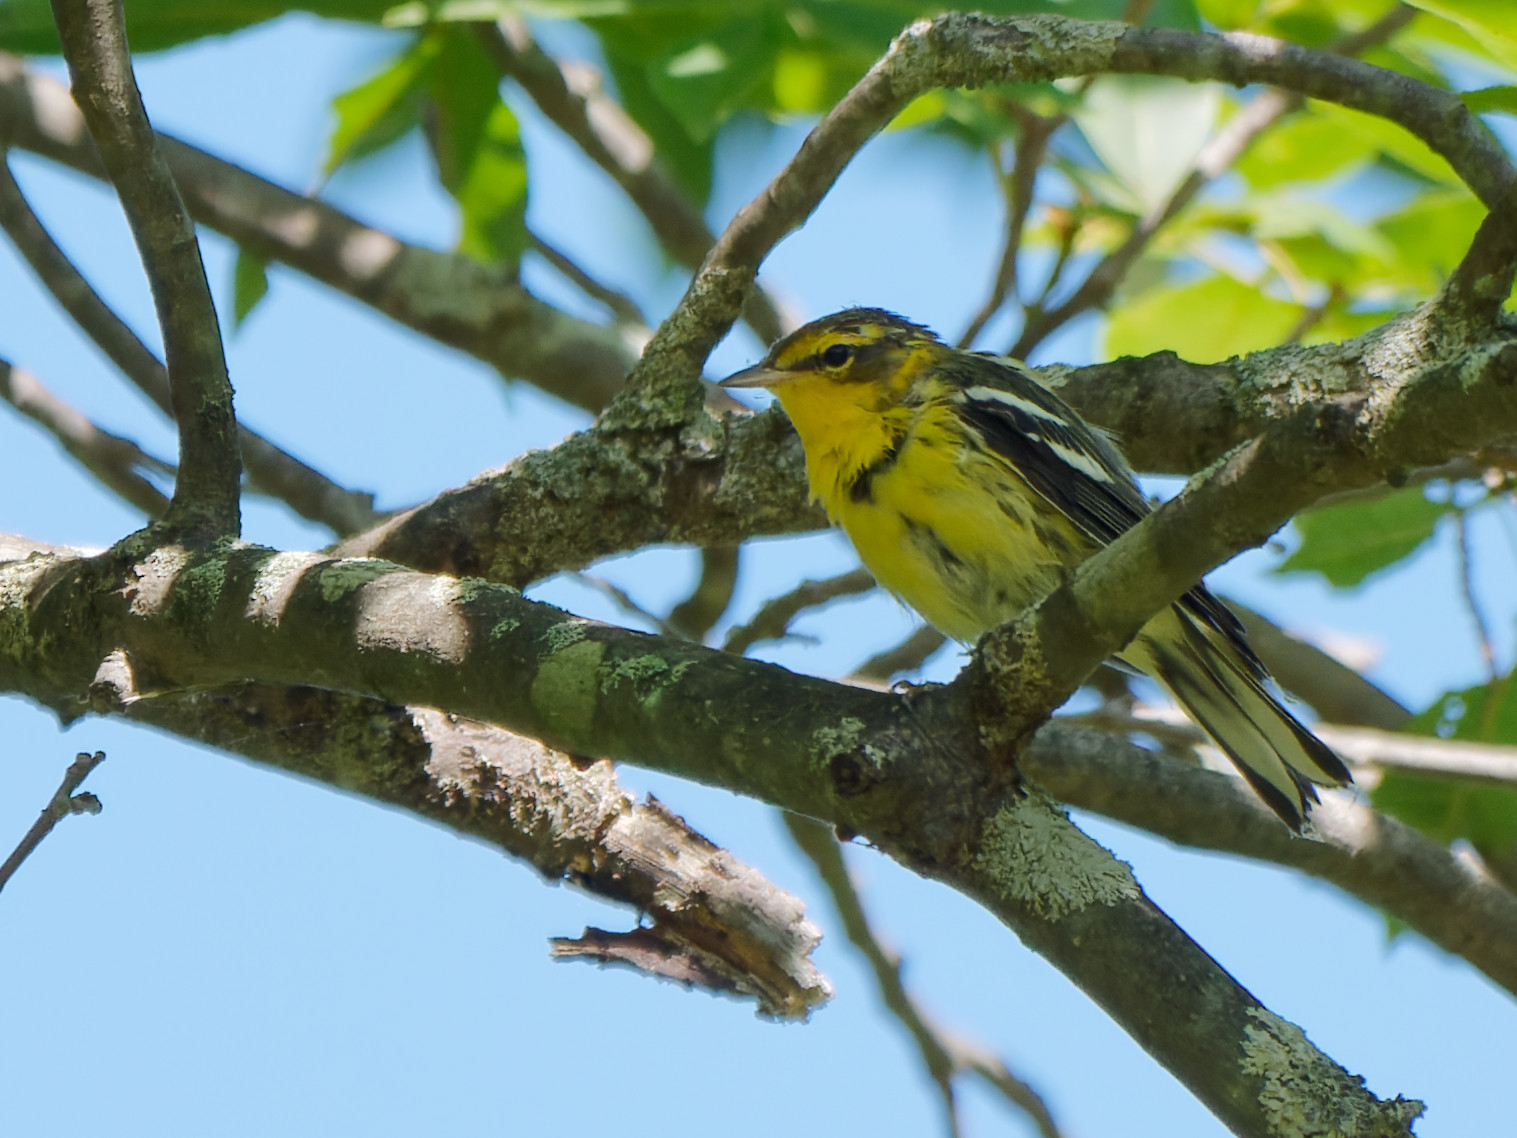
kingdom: Animalia
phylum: Chordata
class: Aves
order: Passeriformes
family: Parulidae
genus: Setophaga
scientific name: Setophaga fusca
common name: Blackburnian warbler
